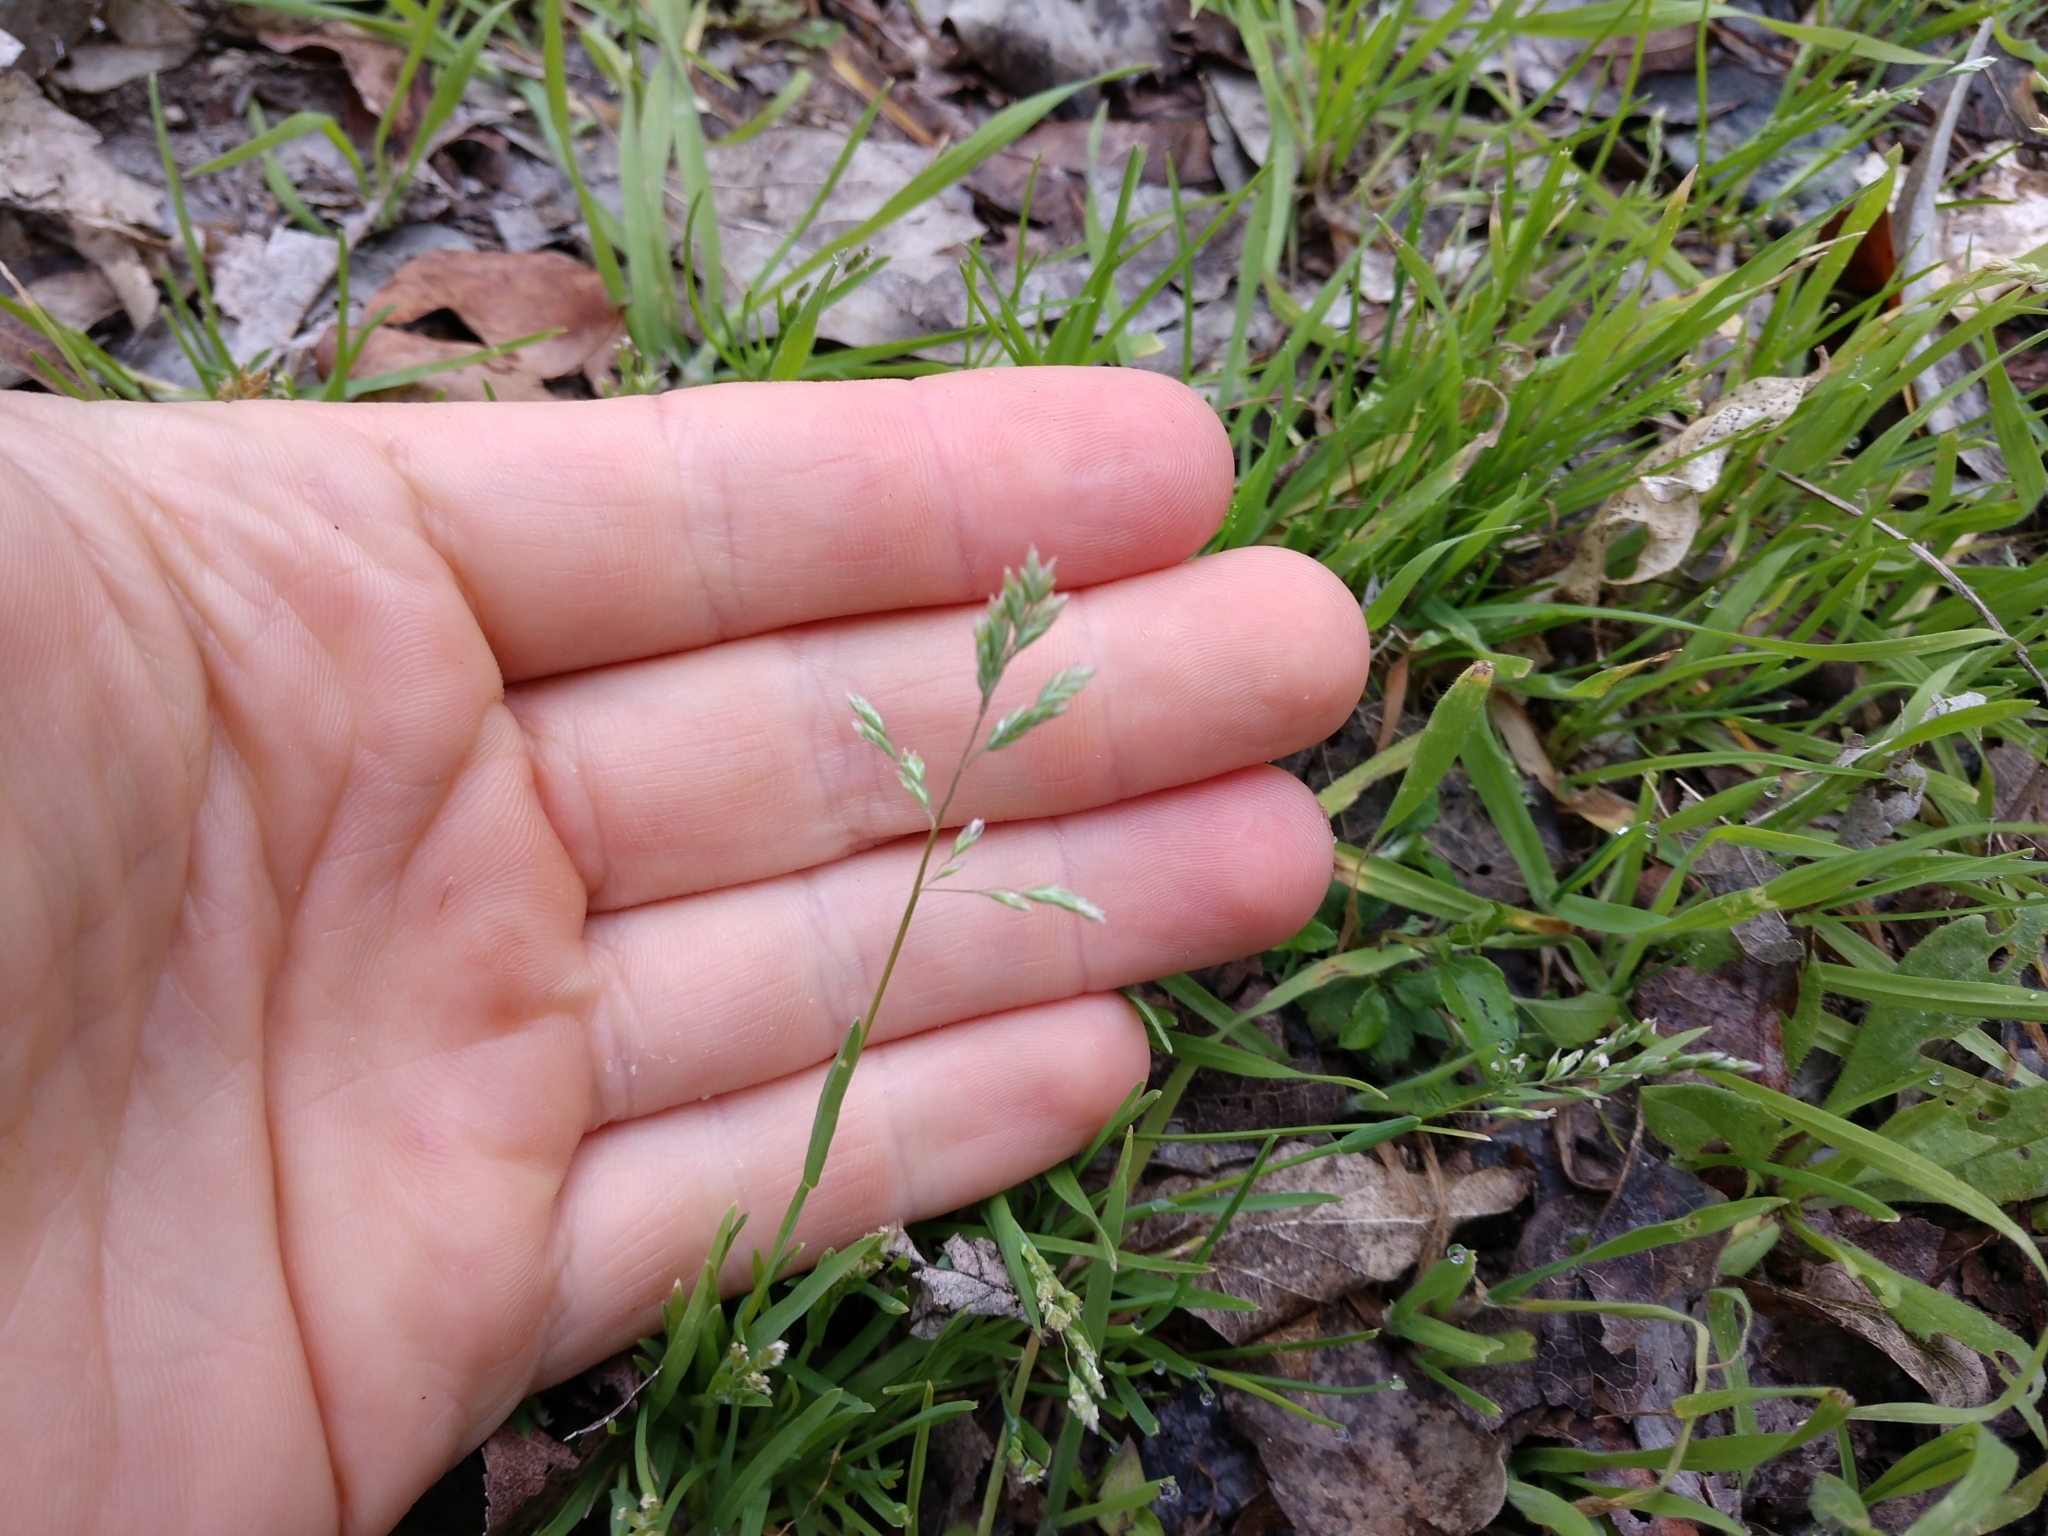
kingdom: Plantae
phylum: Tracheophyta
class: Liliopsida
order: Poales
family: Poaceae
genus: Poa
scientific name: Poa annua
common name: Annual bluegrass
